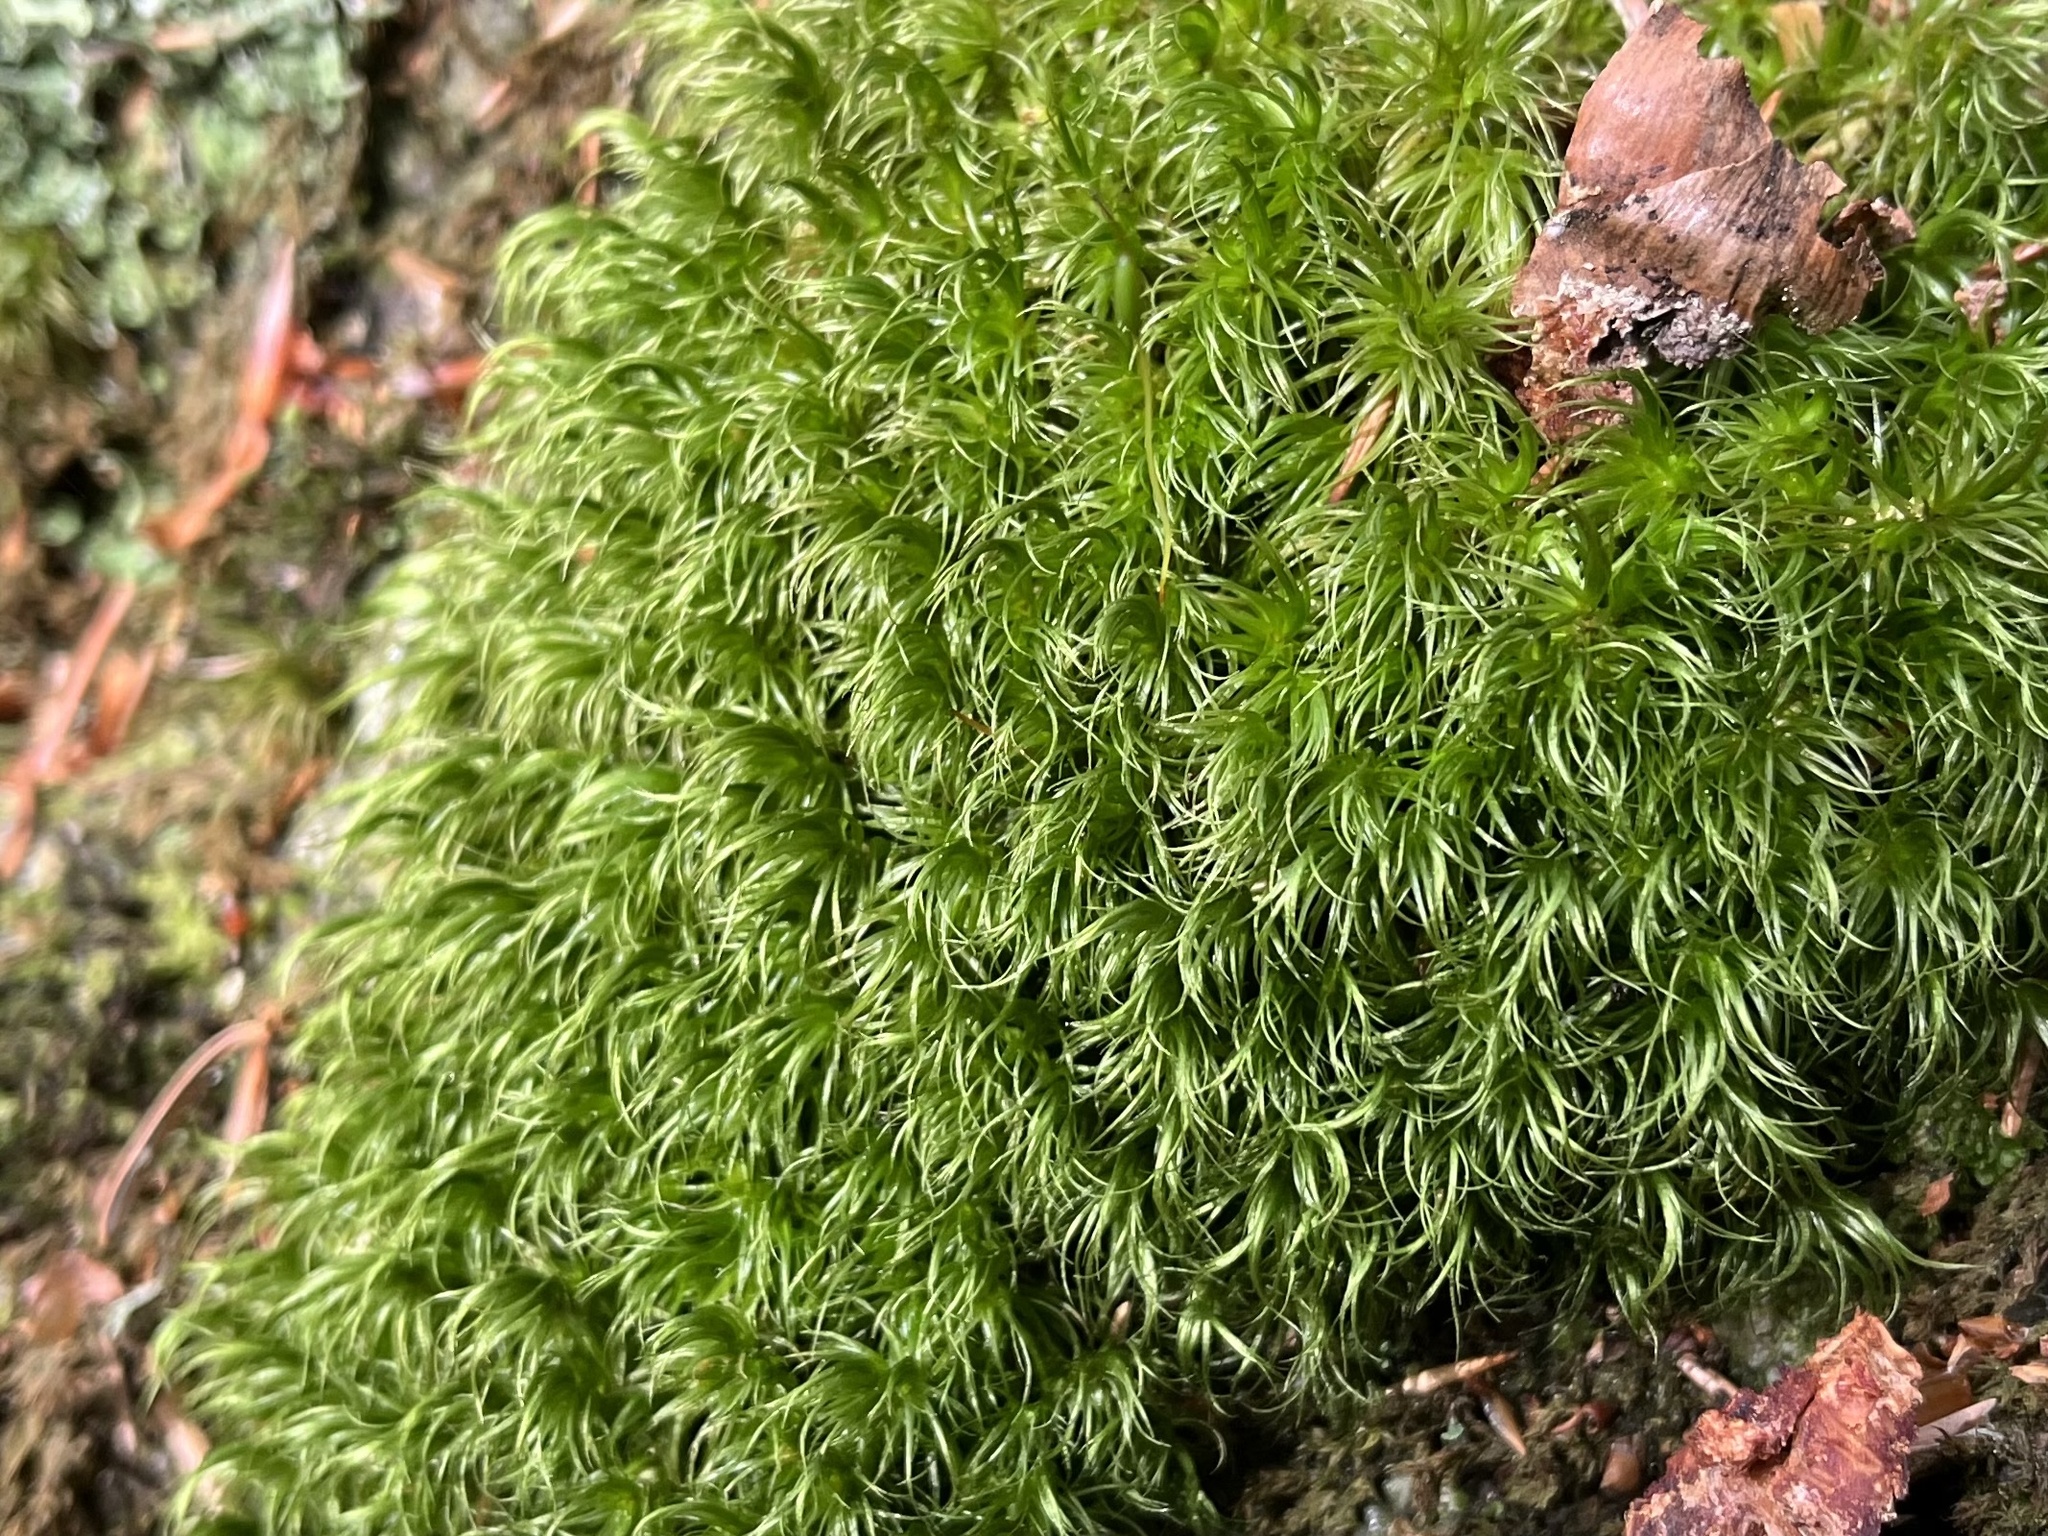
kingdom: Plantae
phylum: Bryophyta
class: Bryopsida
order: Dicranales
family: Dicranaceae
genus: Dicranum
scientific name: Dicranum scoparium
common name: Broom fork-moss
